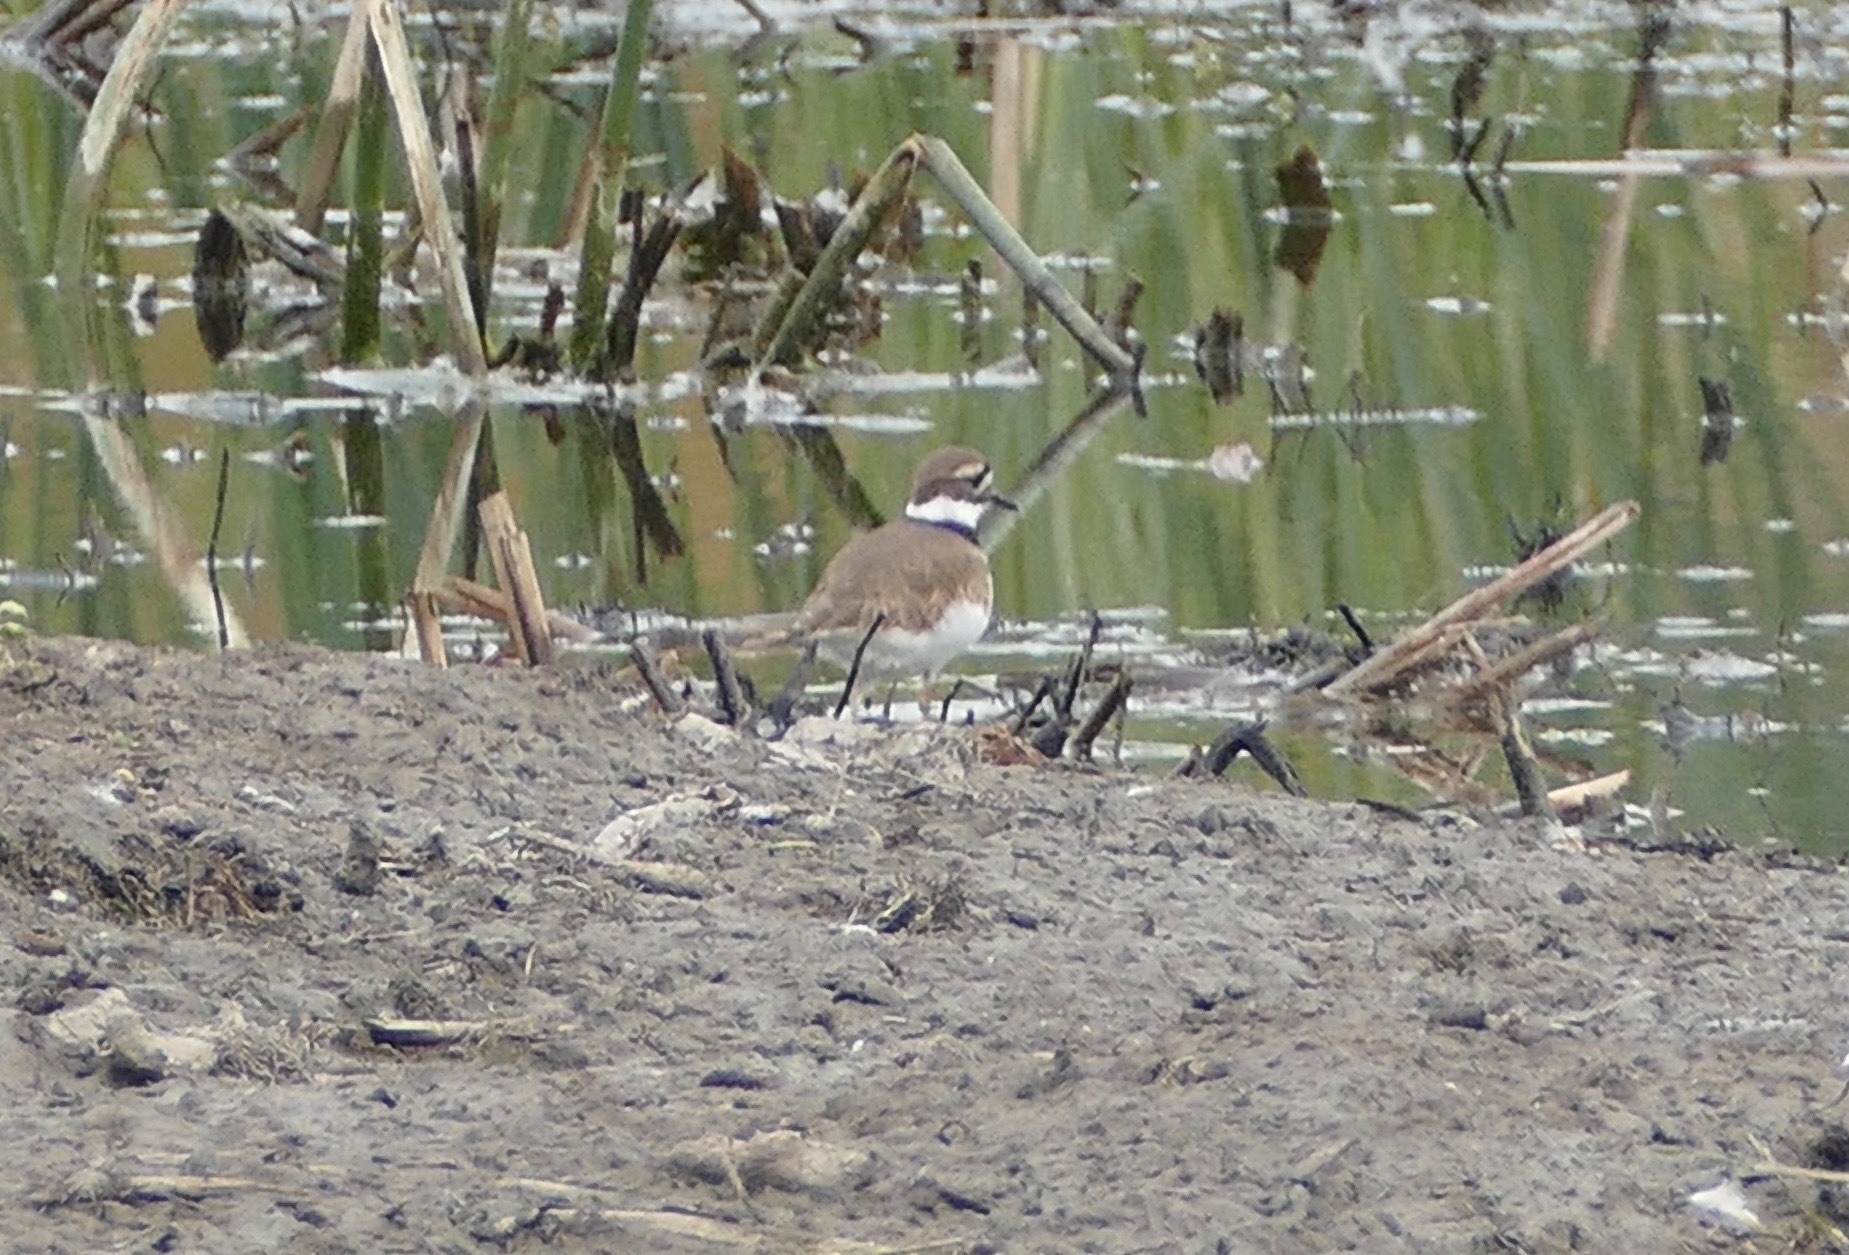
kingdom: Animalia
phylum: Chordata
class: Aves
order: Charadriiformes
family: Charadriidae
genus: Charadrius
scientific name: Charadrius vociferus
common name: Killdeer
